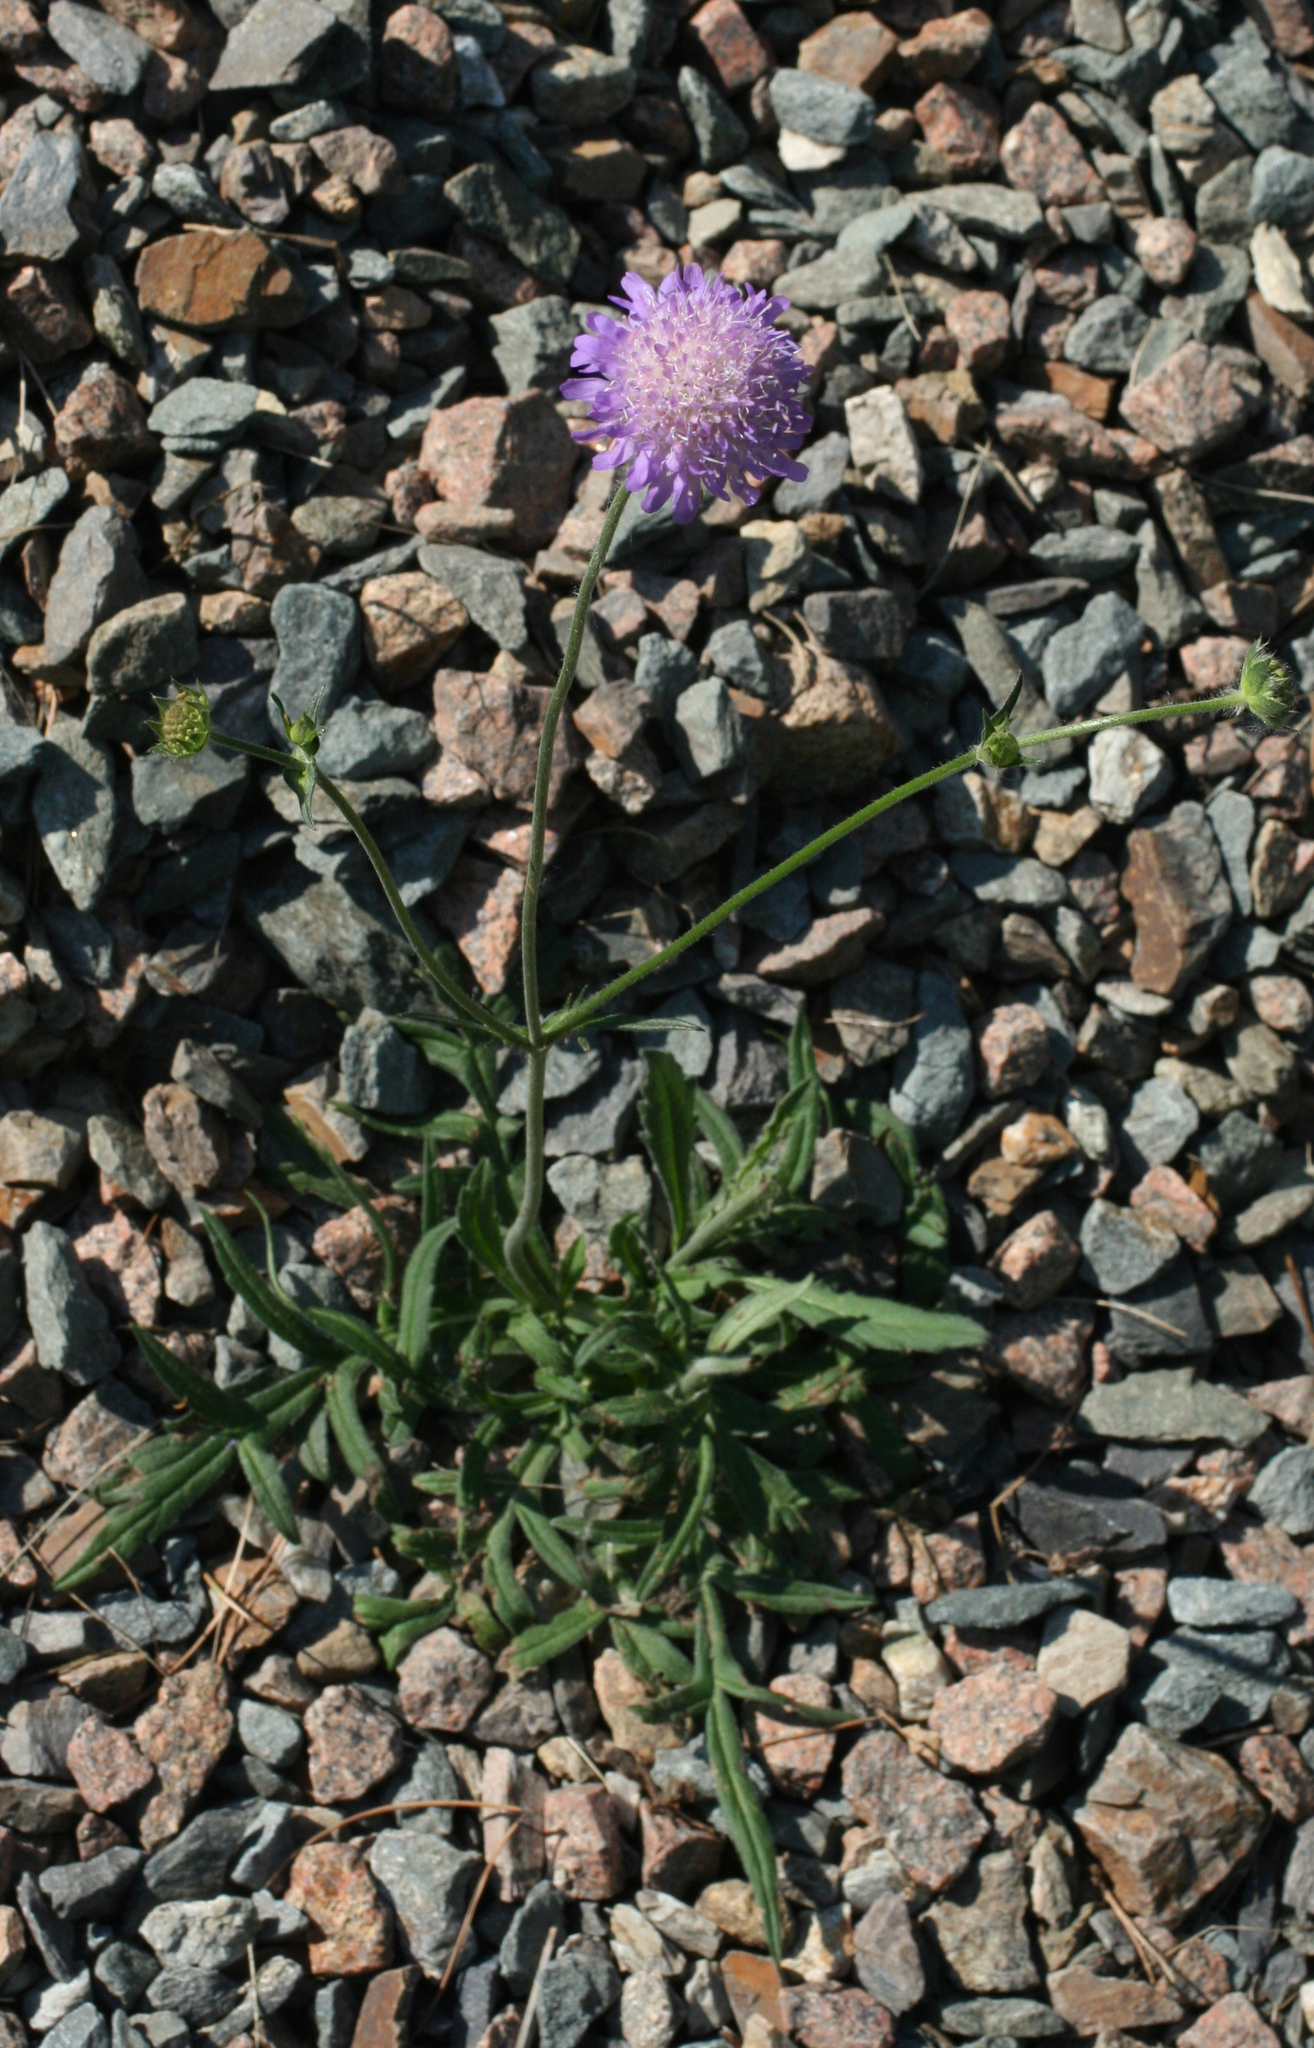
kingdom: Plantae
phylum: Tracheophyta
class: Magnoliopsida
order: Dipsacales
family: Caprifoliaceae
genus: Knautia
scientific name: Knautia arvensis
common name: Field scabiosa
